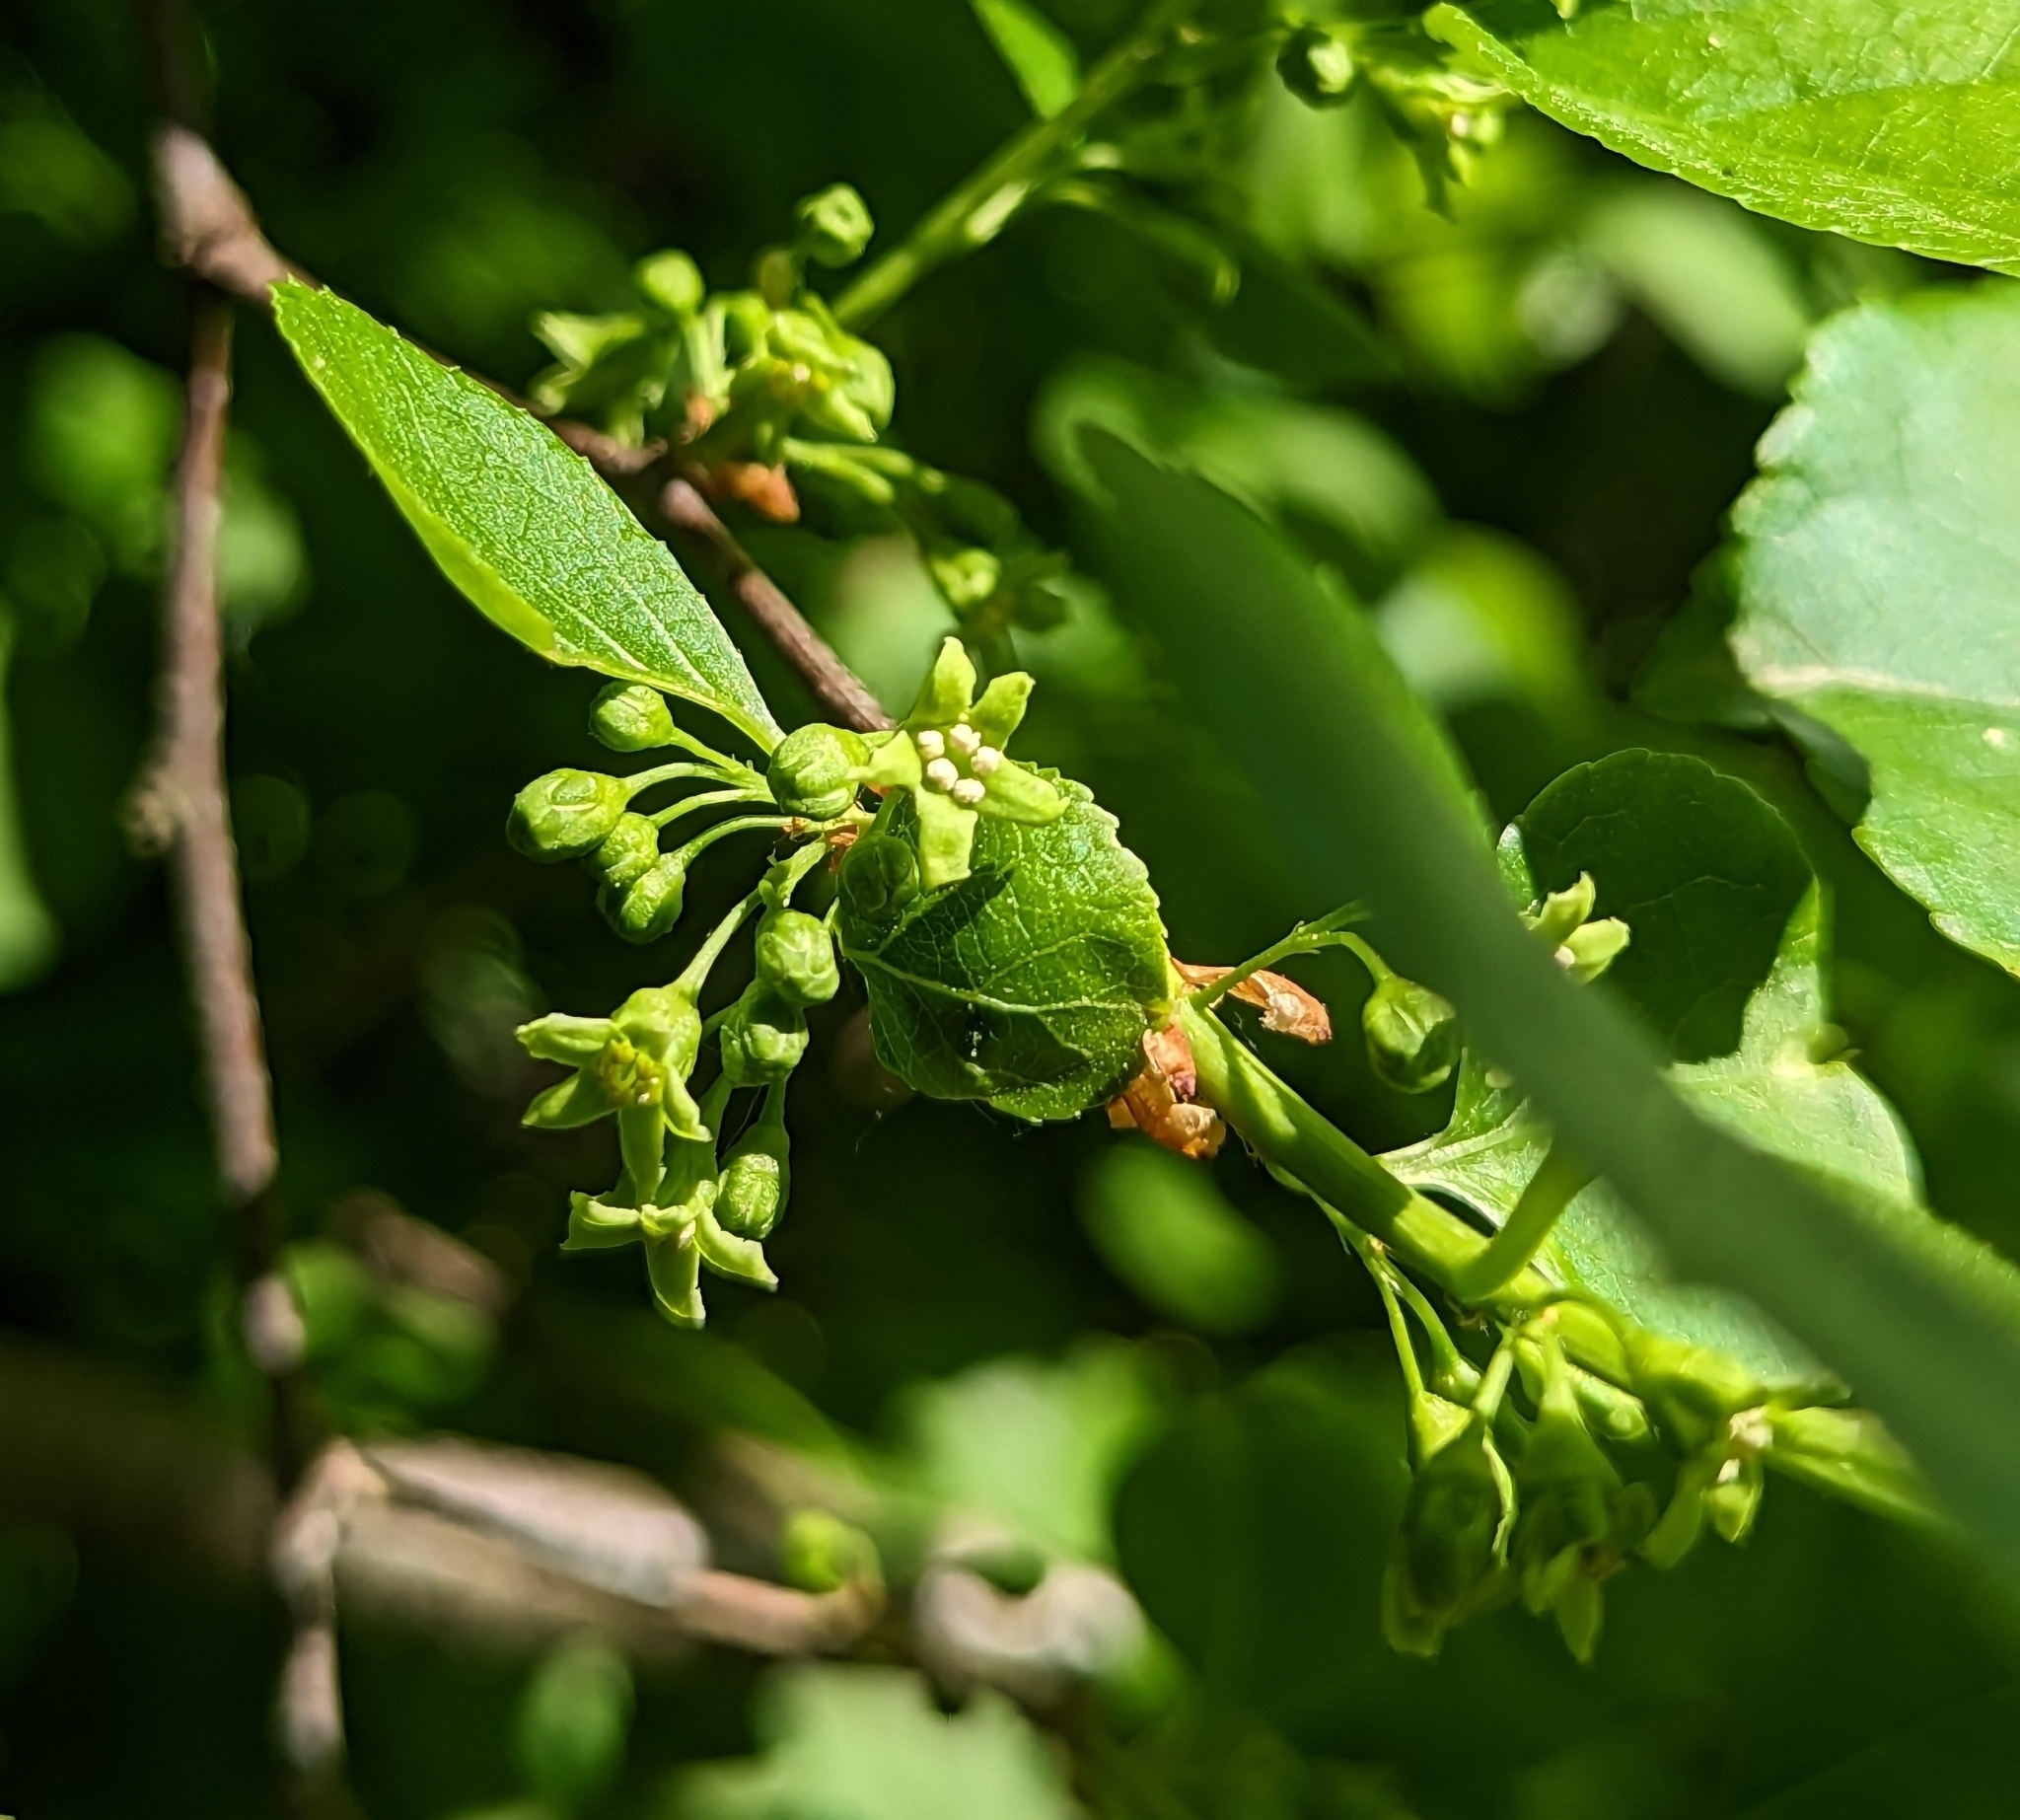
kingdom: Plantae
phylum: Tracheophyta
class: Magnoliopsida
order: Celastrales
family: Celastraceae
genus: Celastrus
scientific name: Celastrus orbiculatus
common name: Oriental bittersweet
